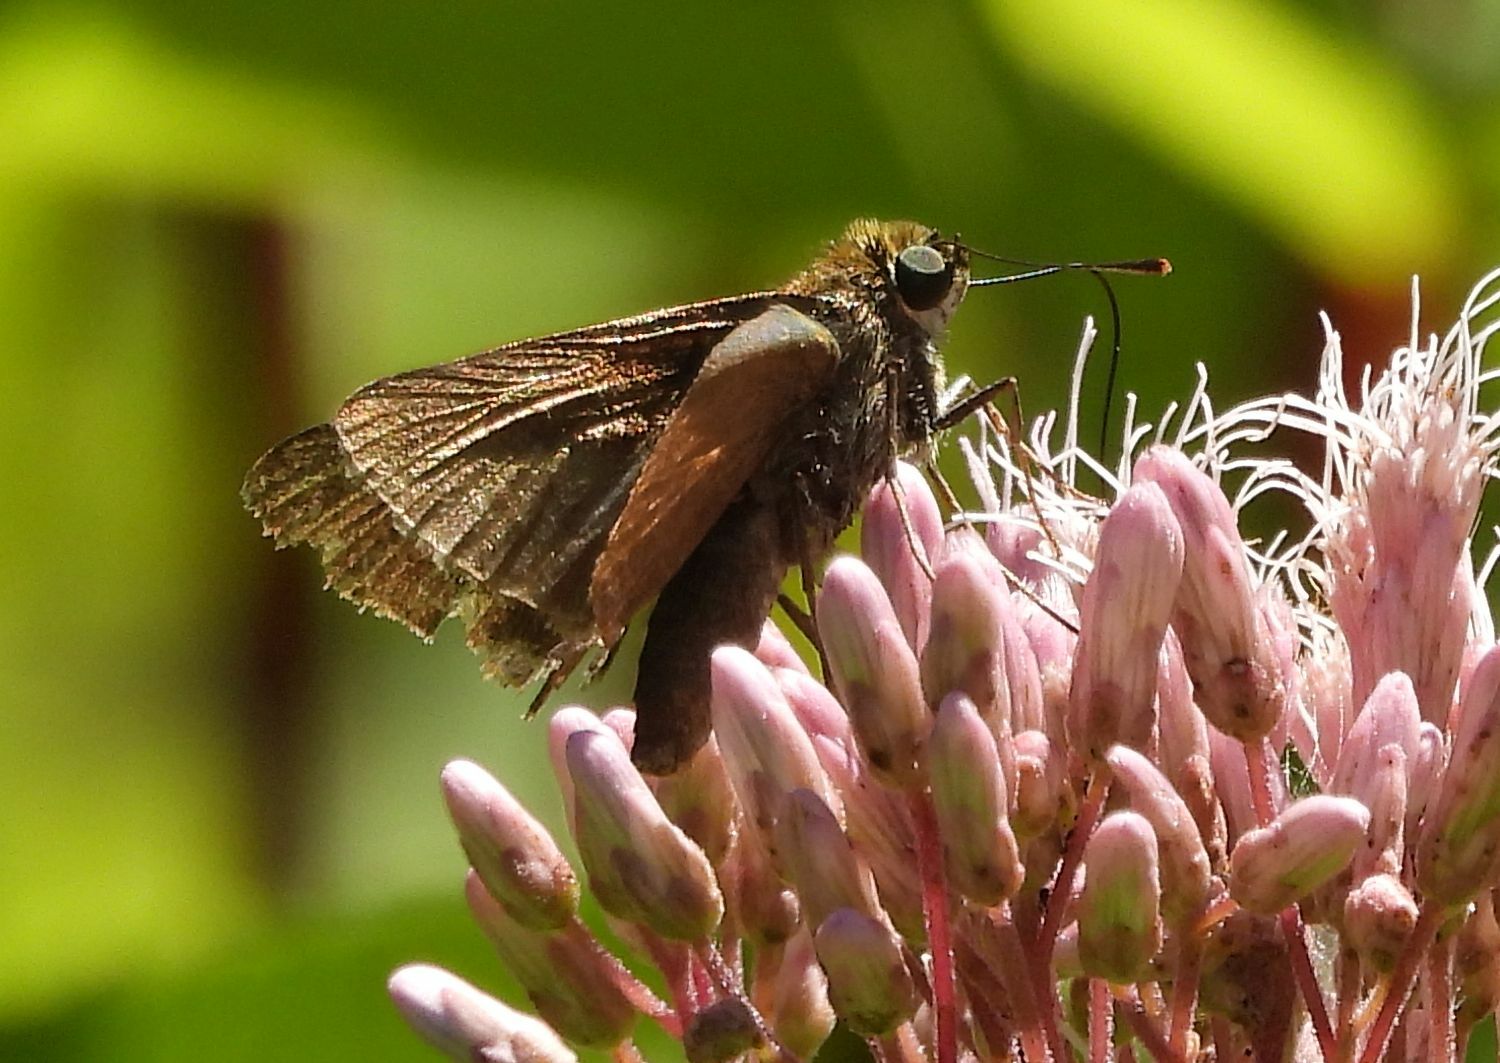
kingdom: Animalia
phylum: Arthropoda
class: Insecta
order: Lepidoptera
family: Hesperiidae
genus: Euphyes
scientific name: Euphyes vestris
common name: Dun skipper
